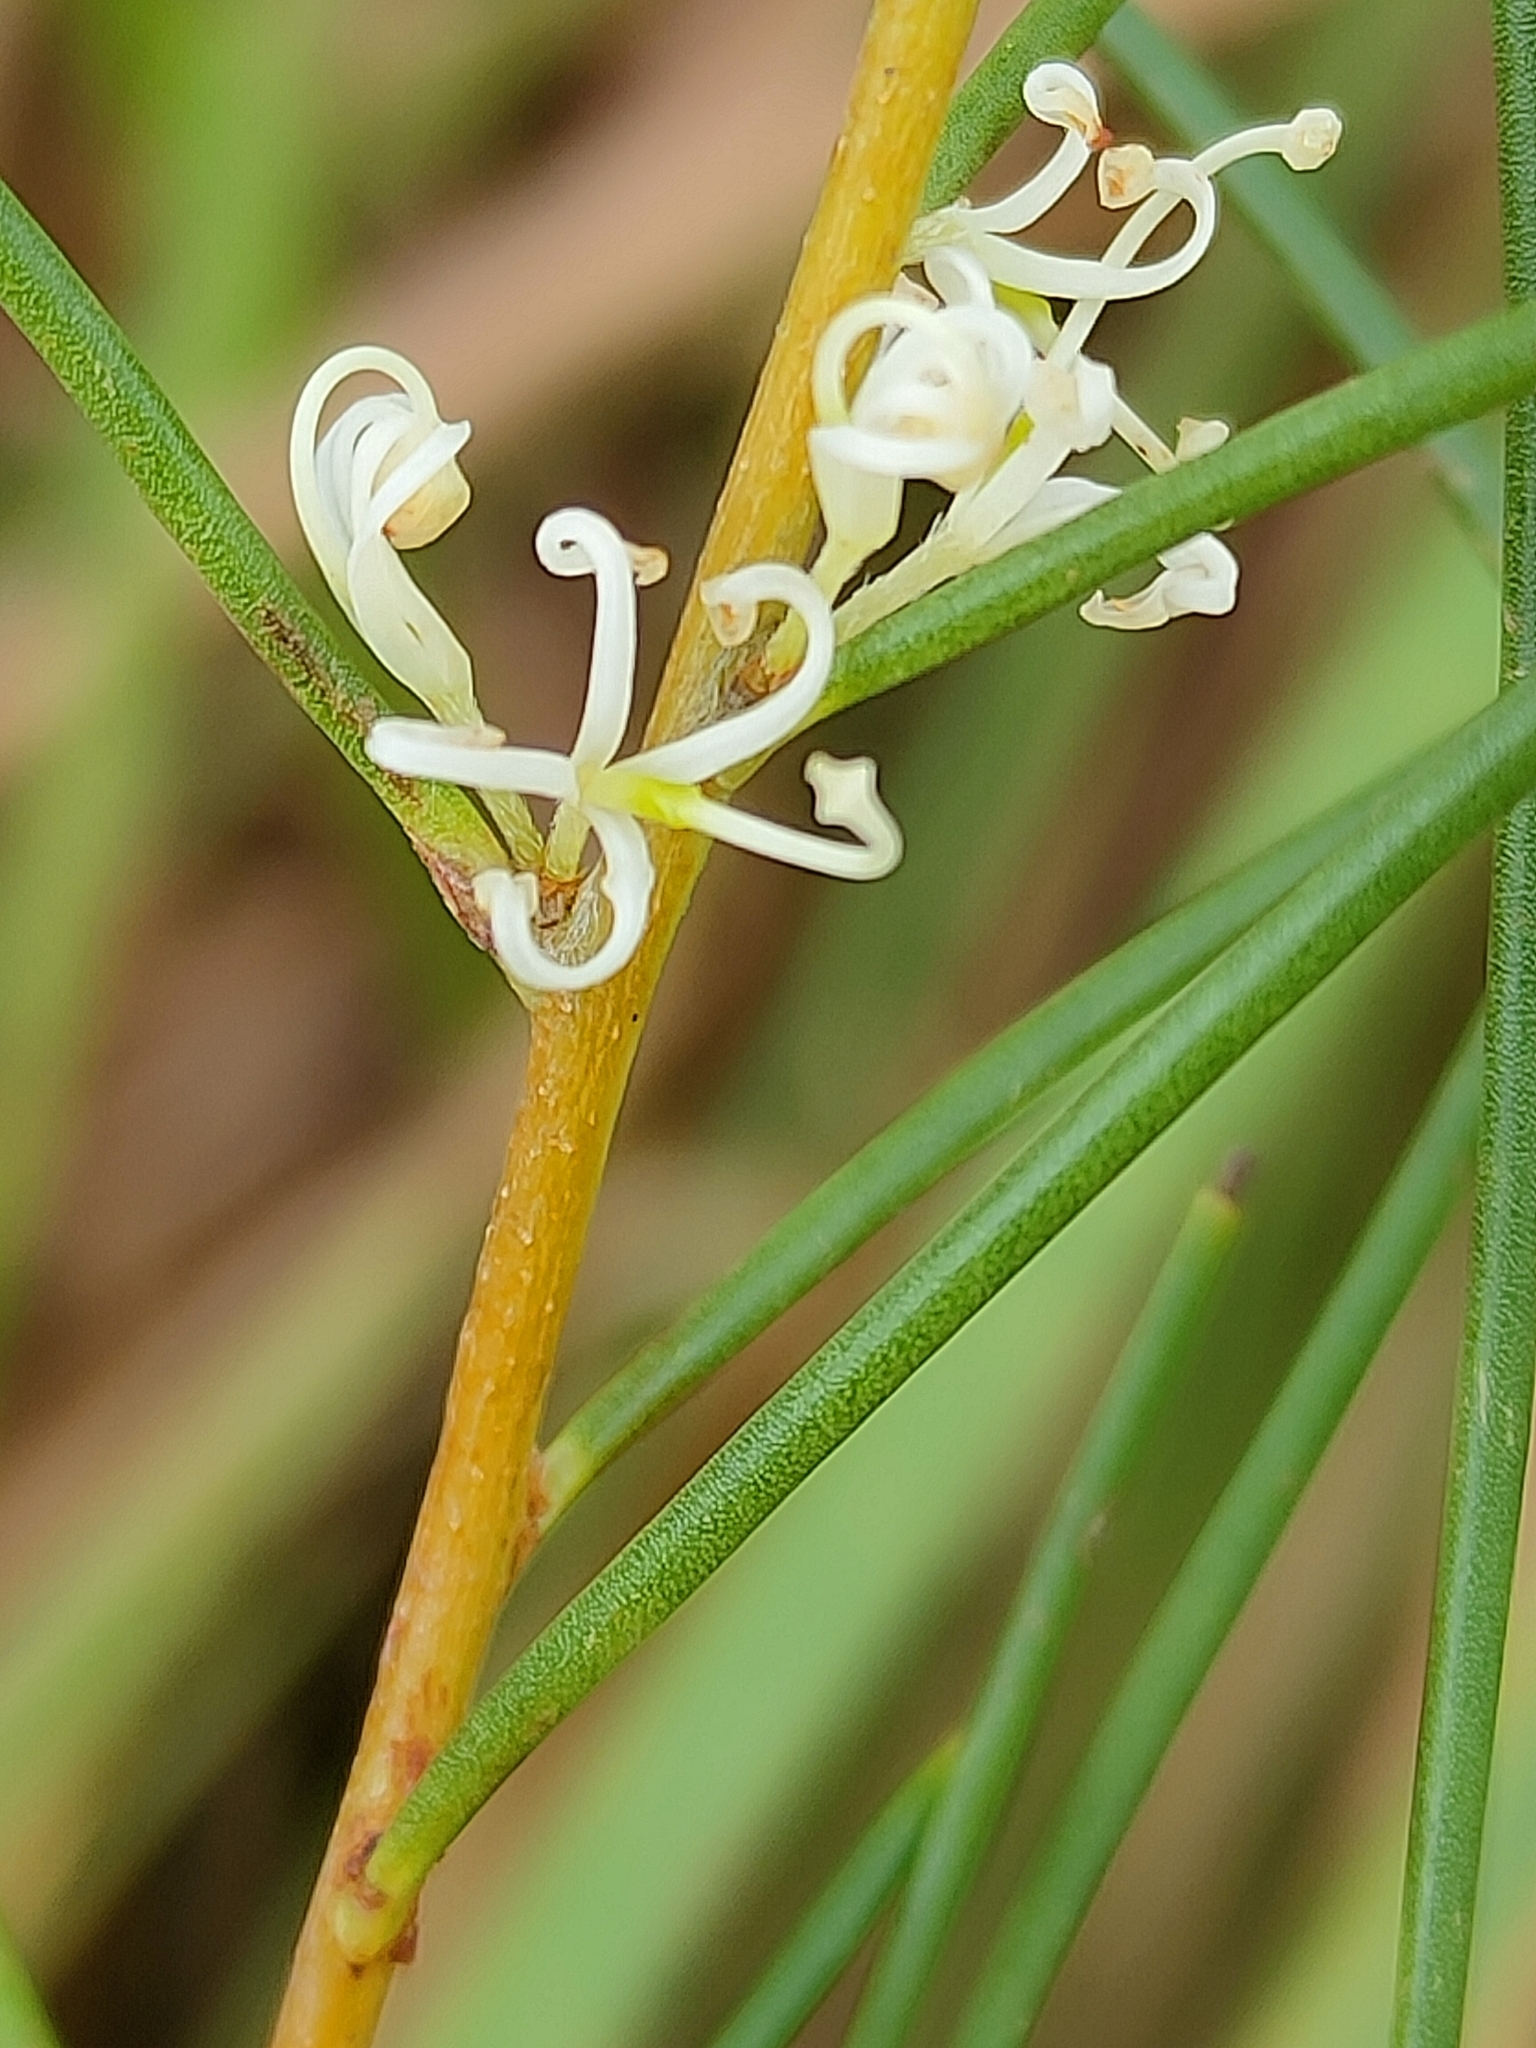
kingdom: Plantae
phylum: Tracheophyta
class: Magnoliopsida
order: Proteales
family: Proteaceae
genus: Hakea
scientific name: Hakea actites
